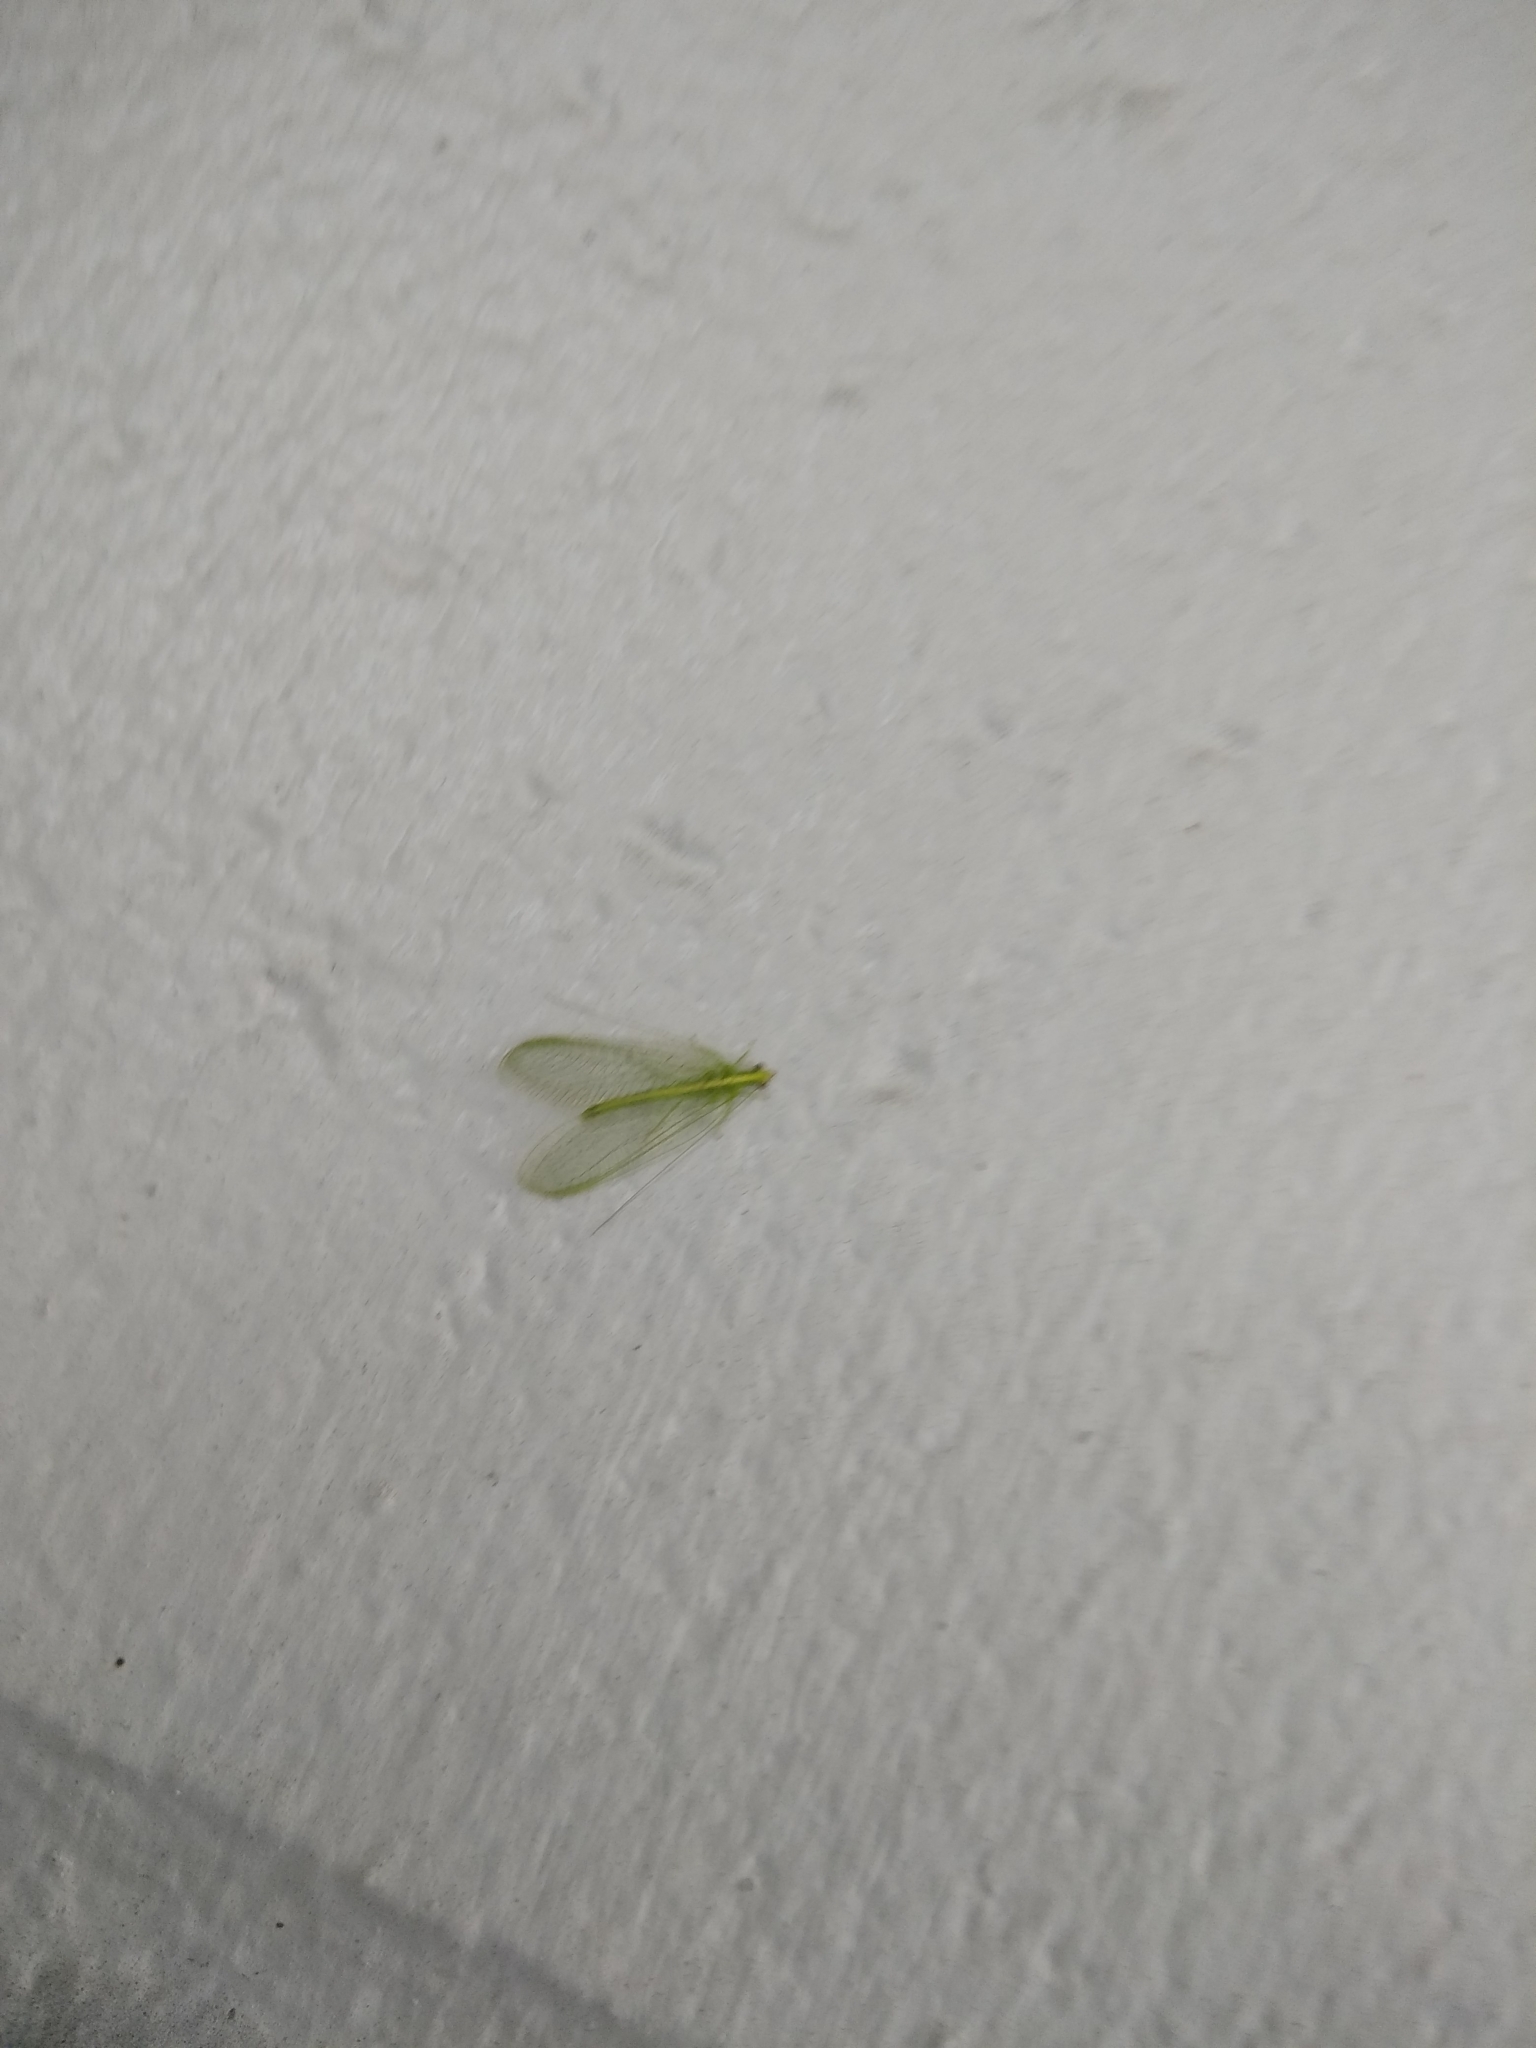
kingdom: Animalia
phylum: Arthropoda
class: Insecta
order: Neuroptera
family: Chrysopidae
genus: Chrysoperla
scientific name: Chrysoperla
